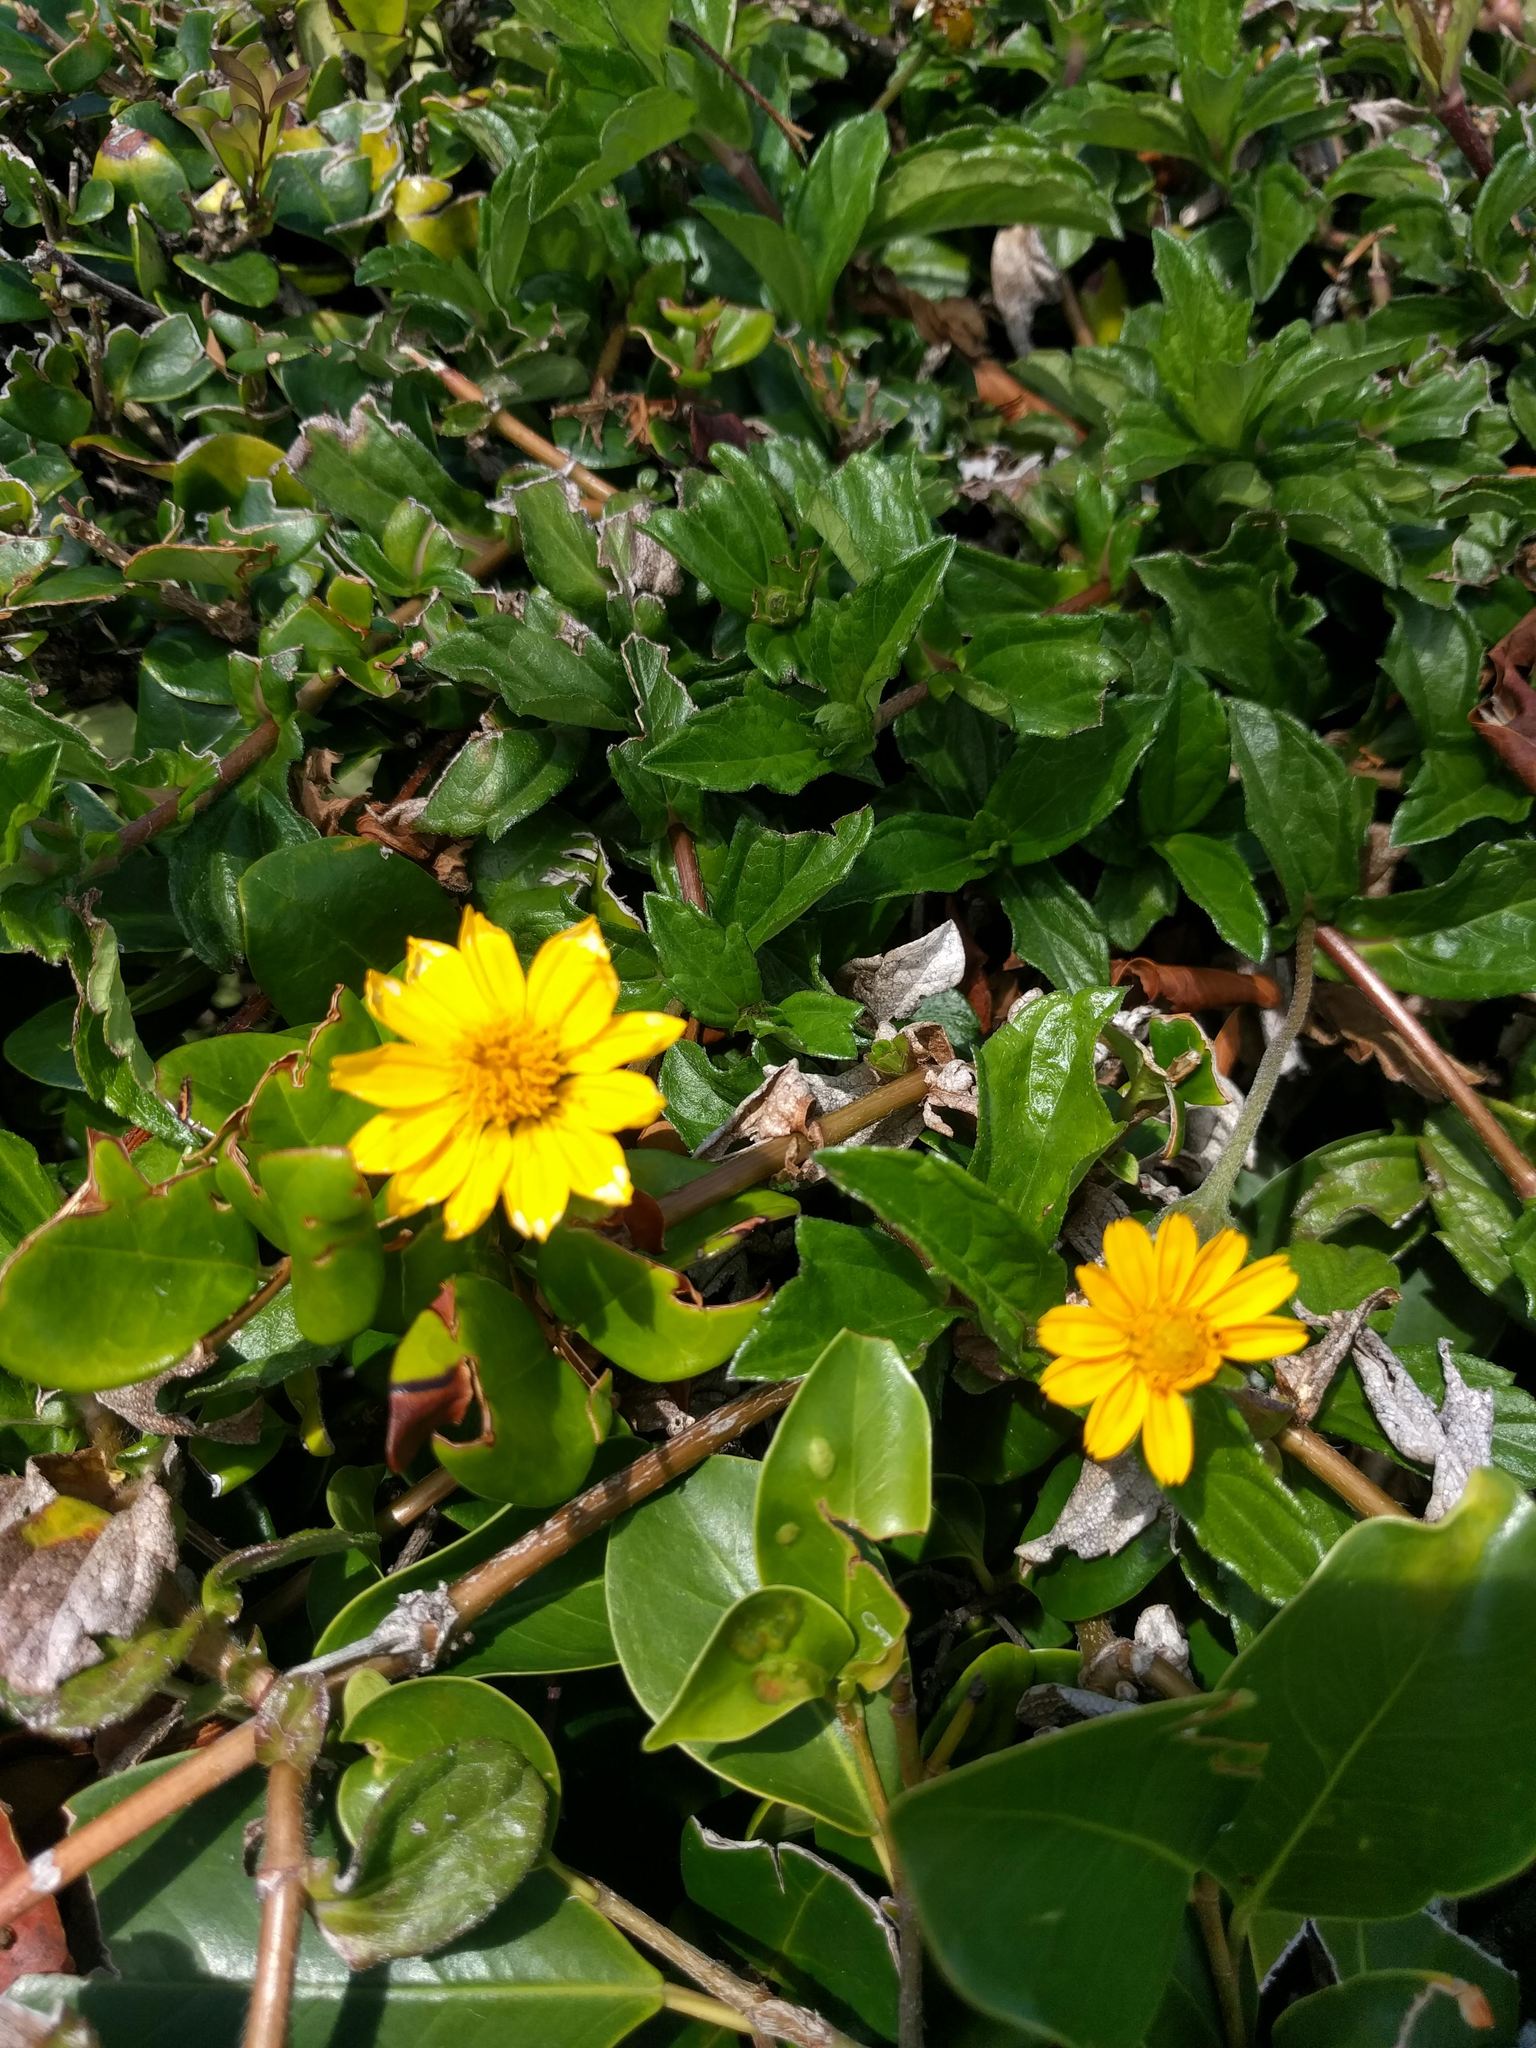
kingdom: Plantae
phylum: Tracheophyta
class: Magnoliopsida
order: Asterales
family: Asteraceae
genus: Sphagneticola
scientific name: Sphagneticola trilobata
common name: Bay biscayne creeping-oxeye
